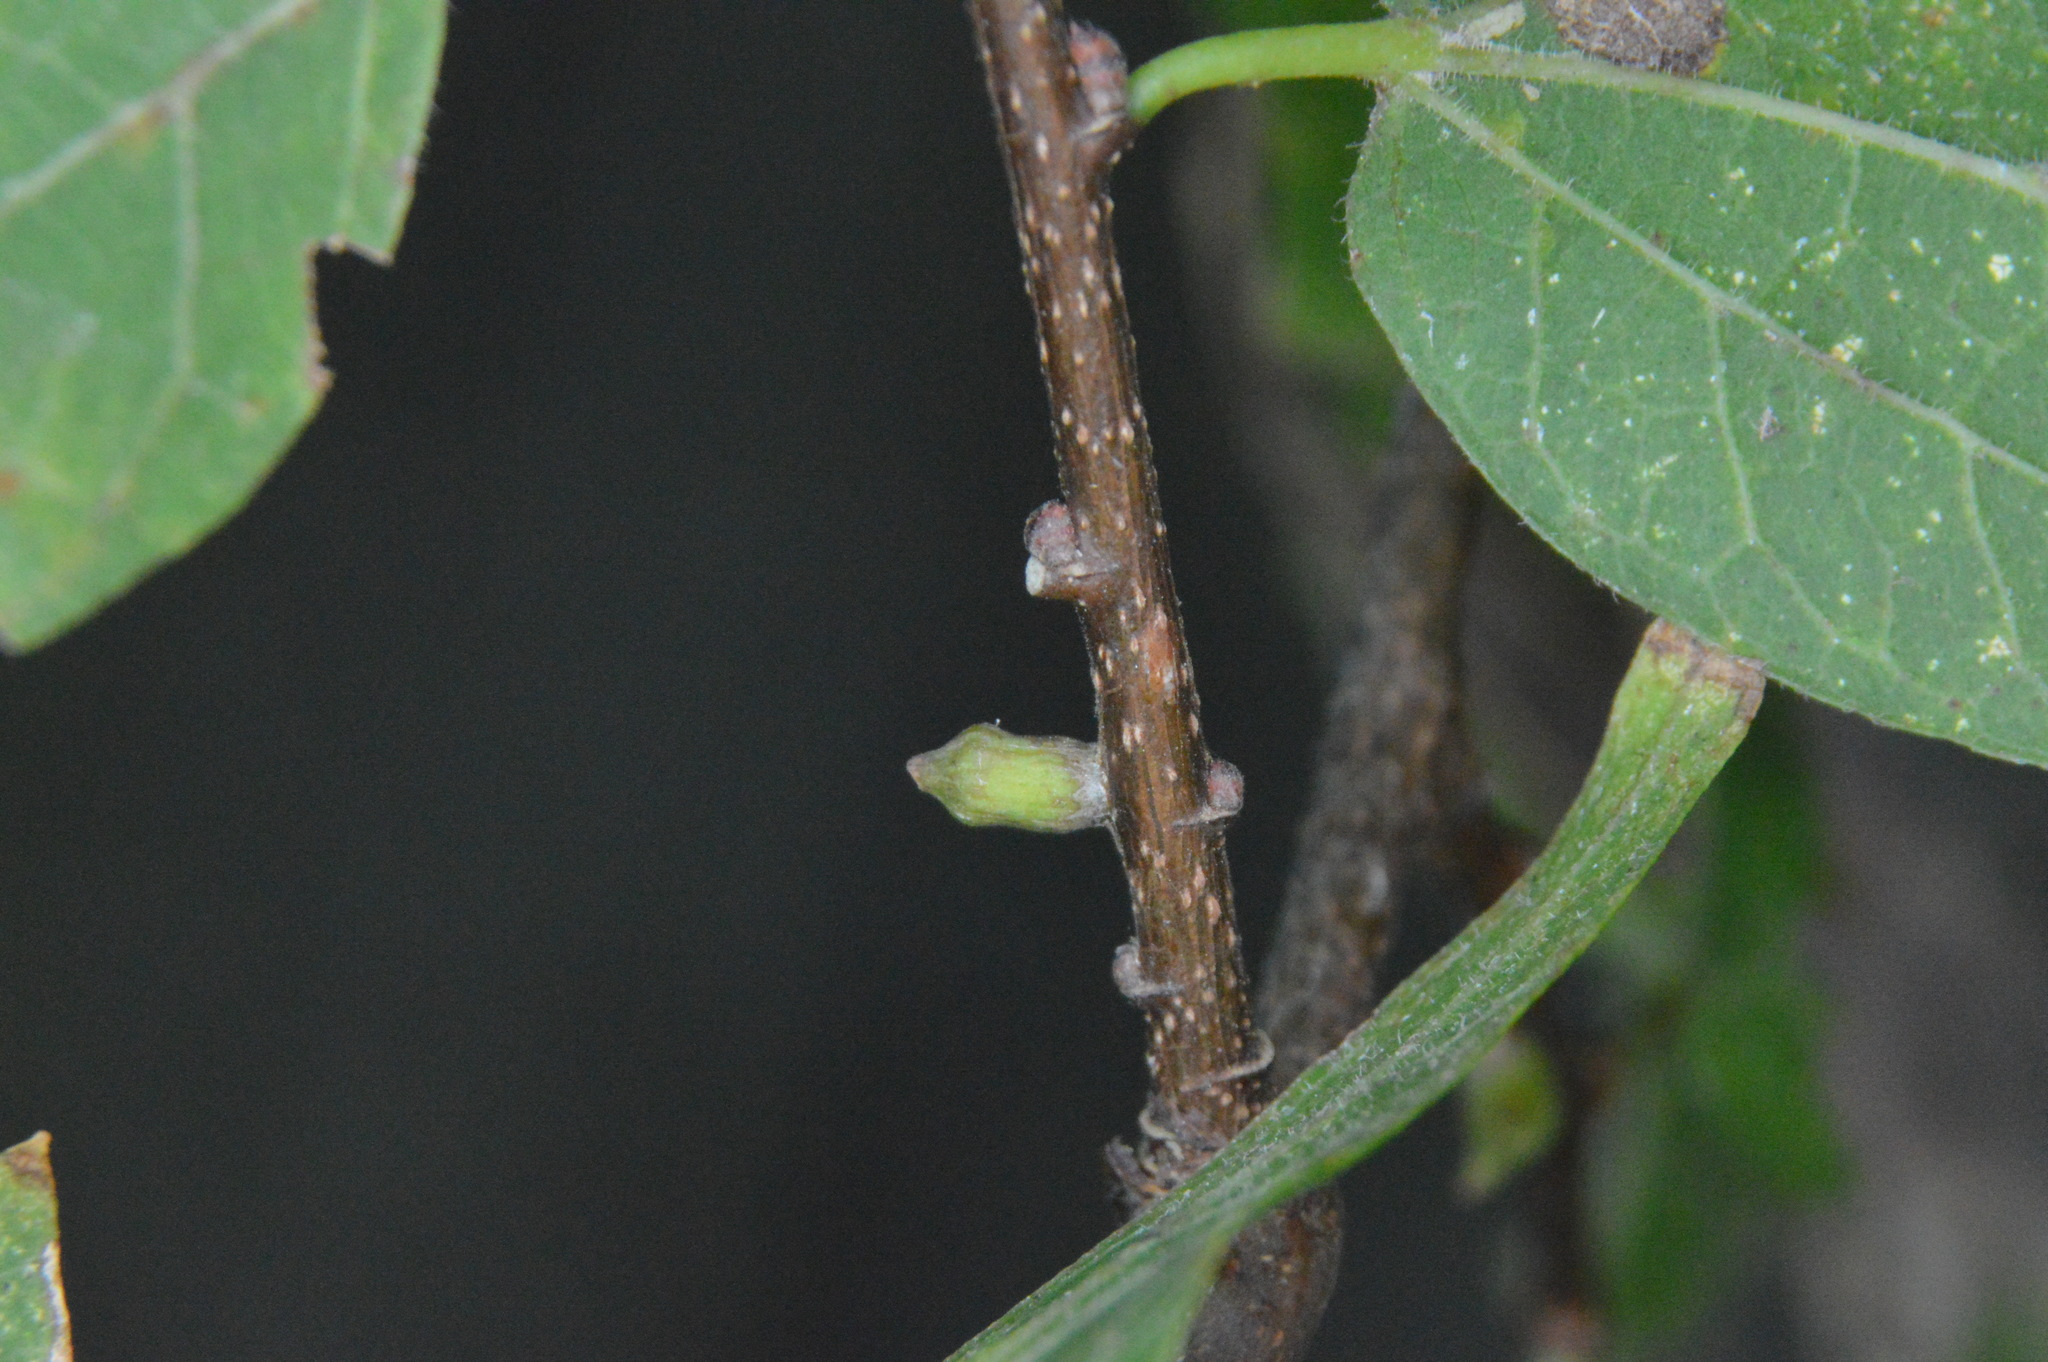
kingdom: Animalia
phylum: Arthropoda
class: Insecta
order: Diptera
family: Cecidomyiidae
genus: Celticecis
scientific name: Celticecis ramicola
